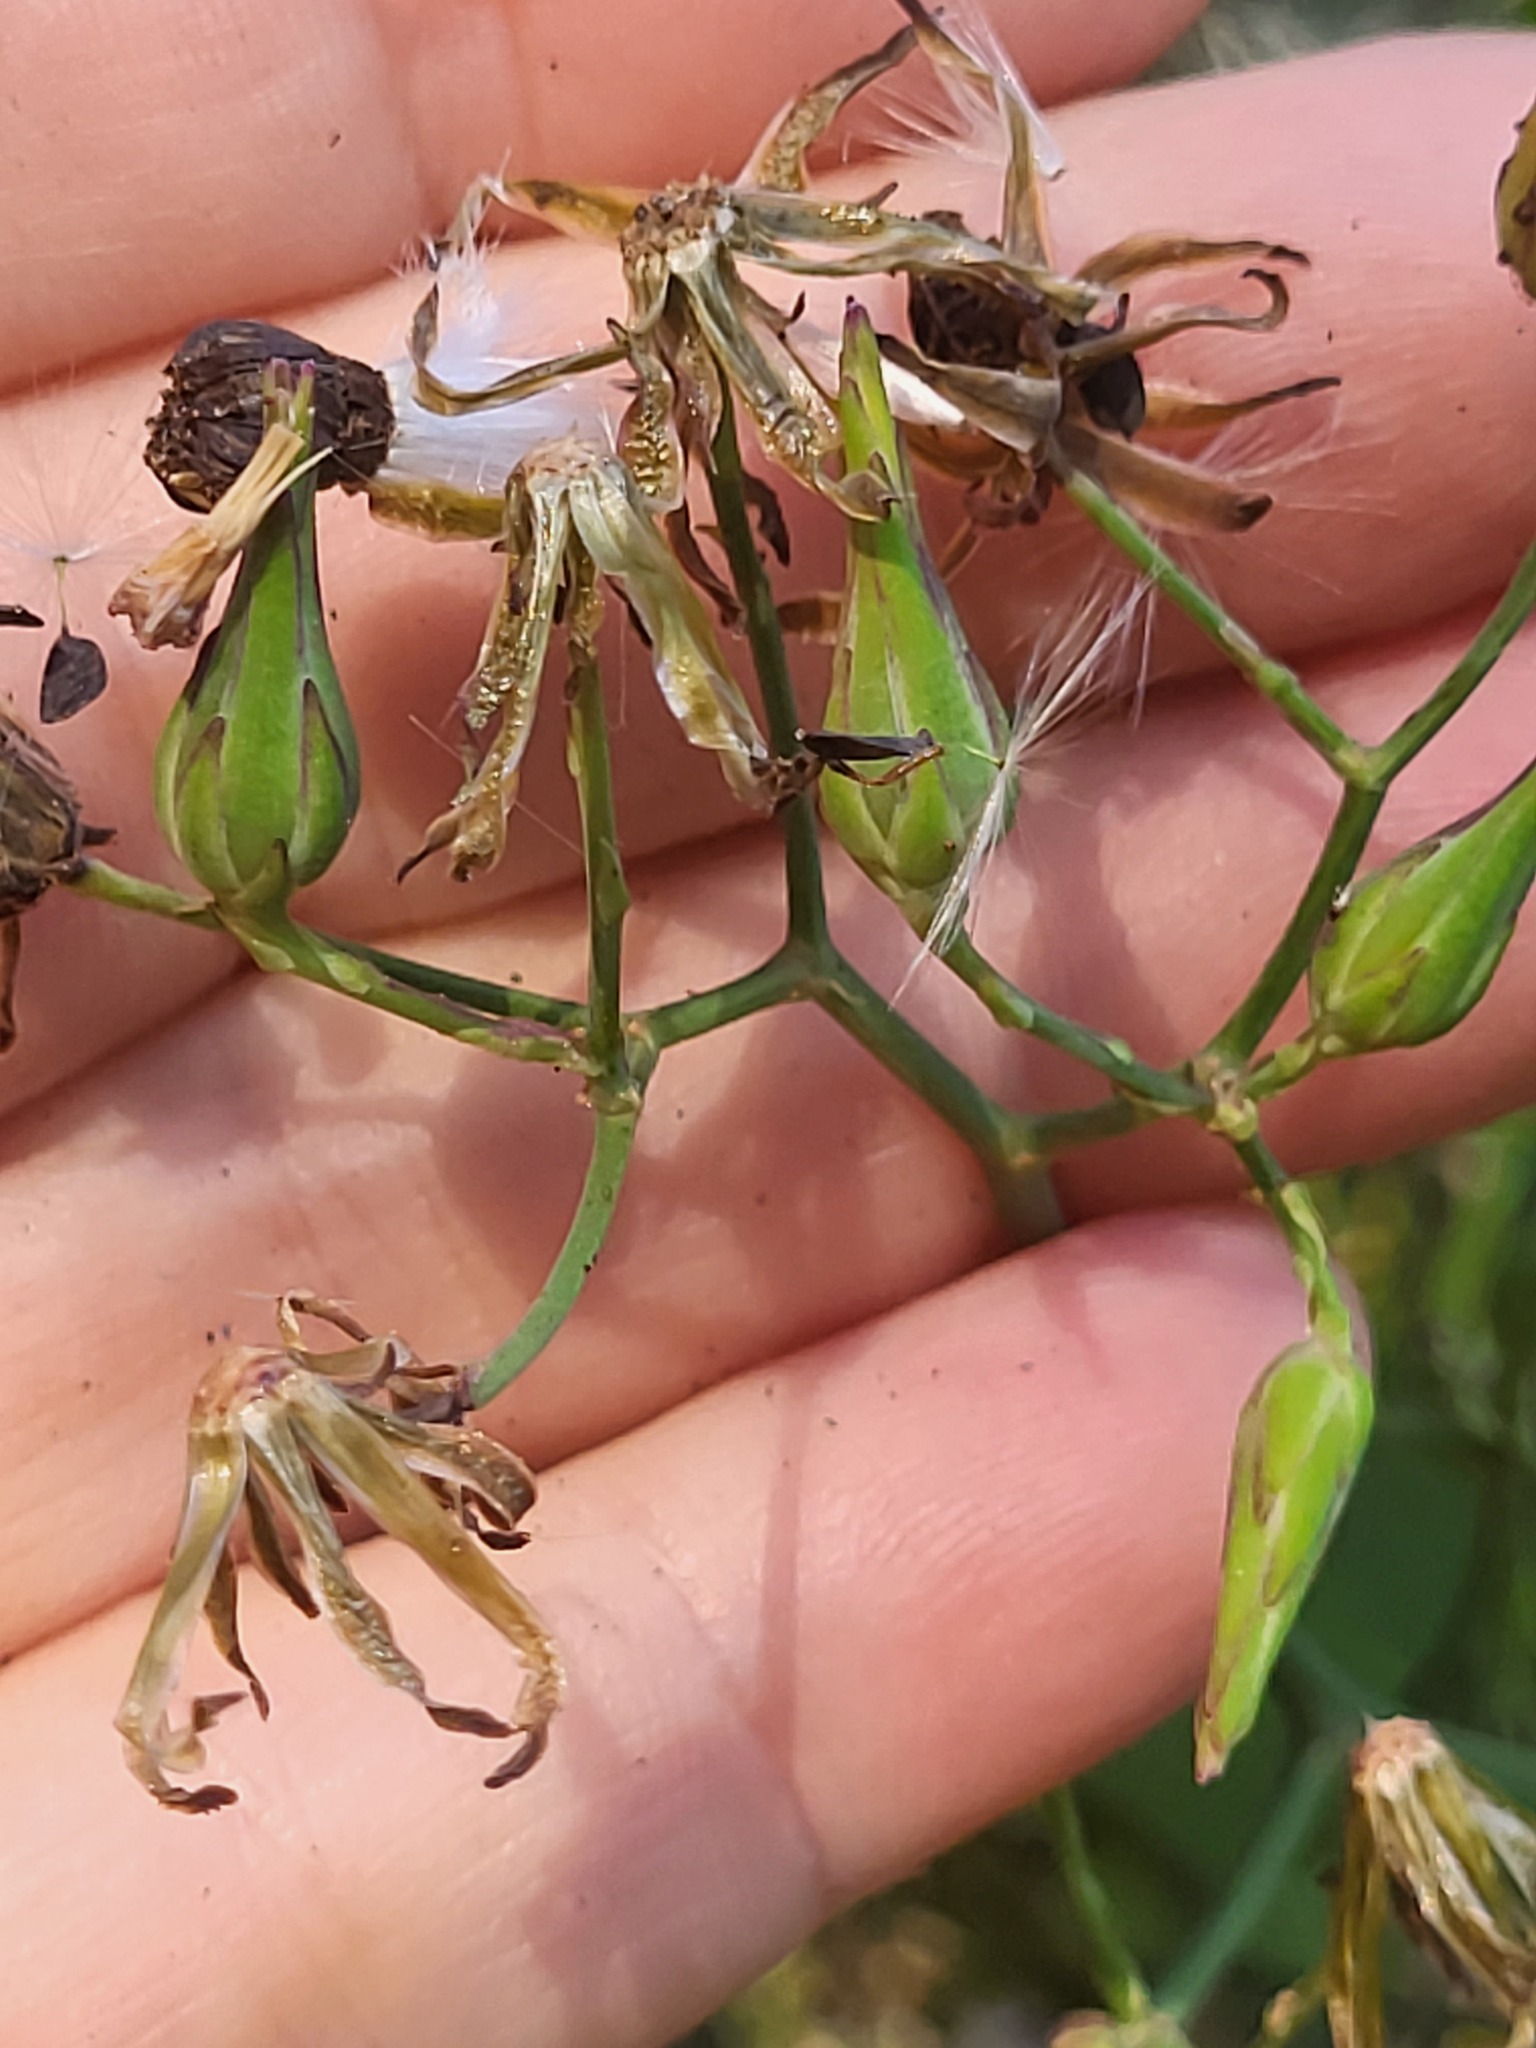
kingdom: Plantae
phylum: Tracheophyta
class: Magnoliopsida
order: Asterales
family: Asteraceae
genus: Lactuca
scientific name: Lactuca canadensis
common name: Canada lettuce
